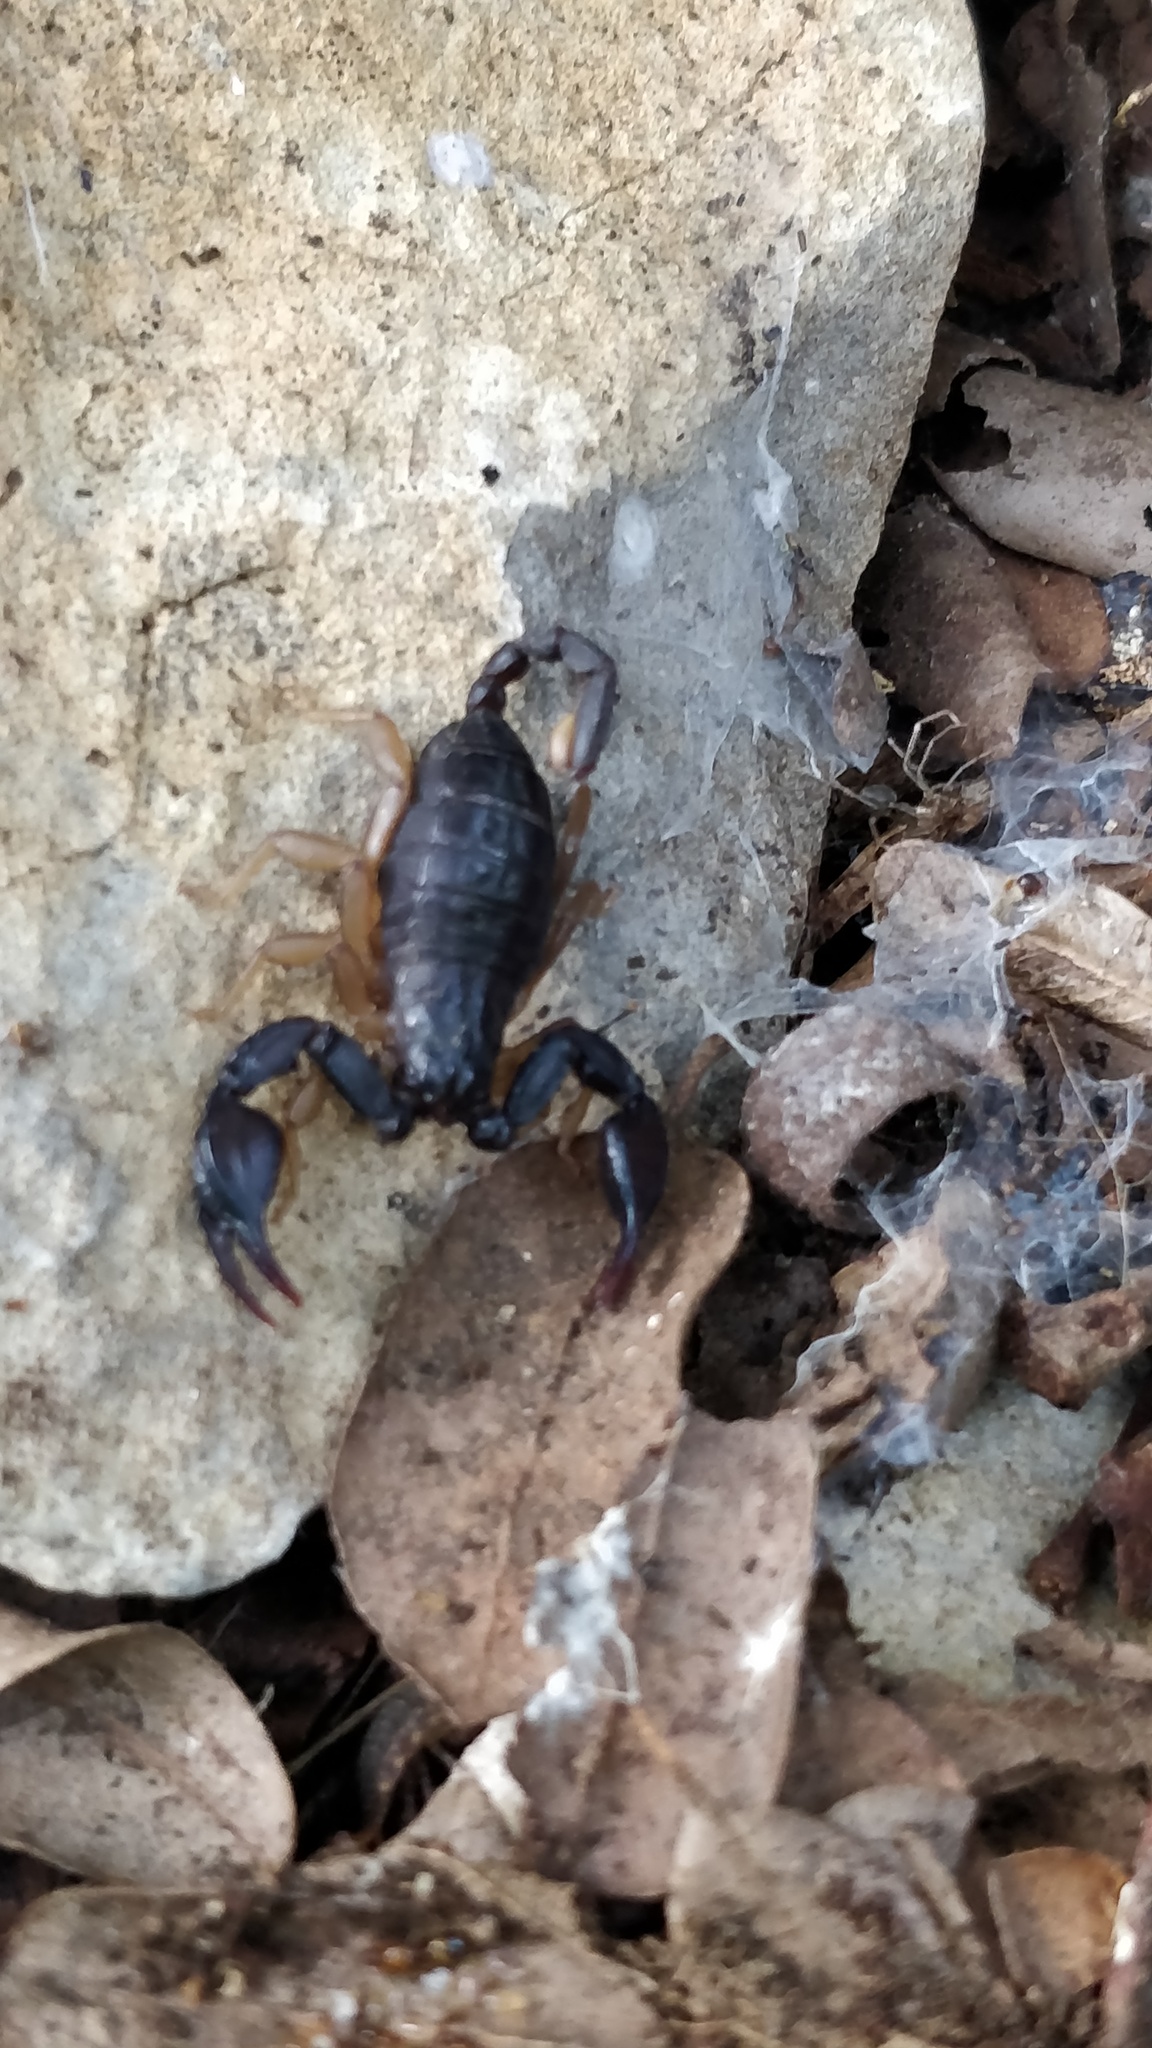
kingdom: Animalia
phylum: Arthropoda
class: Arachnida
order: Scorpiones
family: Euscorpiidae
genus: Euscorpius
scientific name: Euscorpius flavicaudis
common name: European yellow-tailed scorpion
